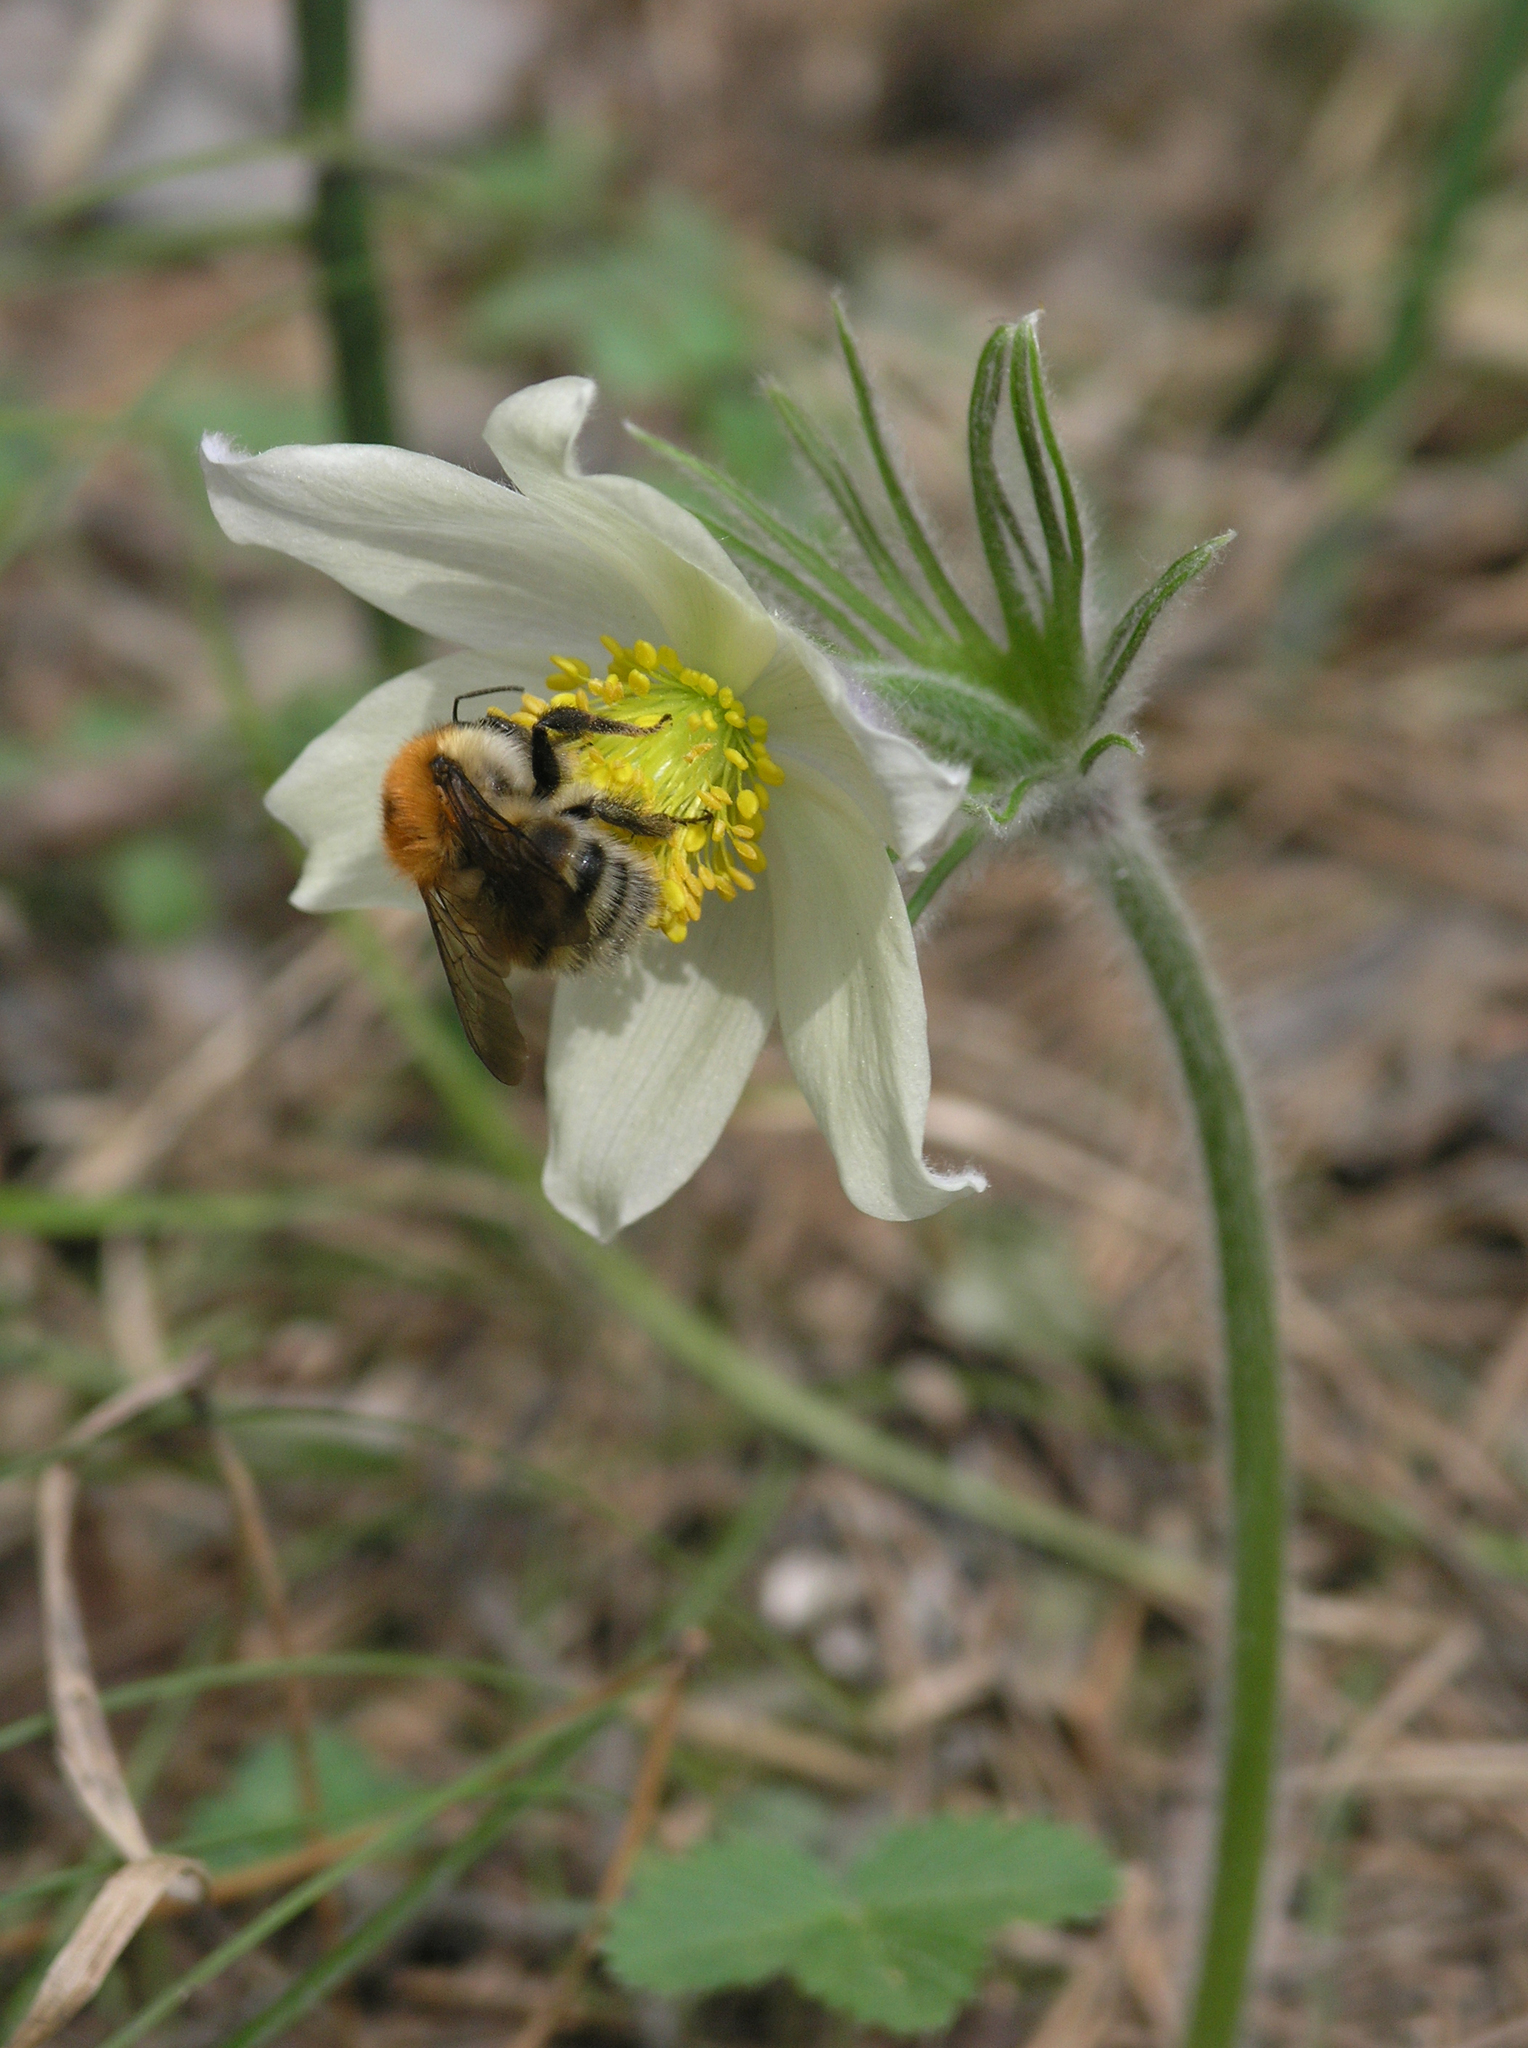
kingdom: Plantae
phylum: Tracheophyta
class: Magnoliopsida
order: Ranunculales
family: Ranunculaceae
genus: Pulsatilla
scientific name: Pulsatilla patens
